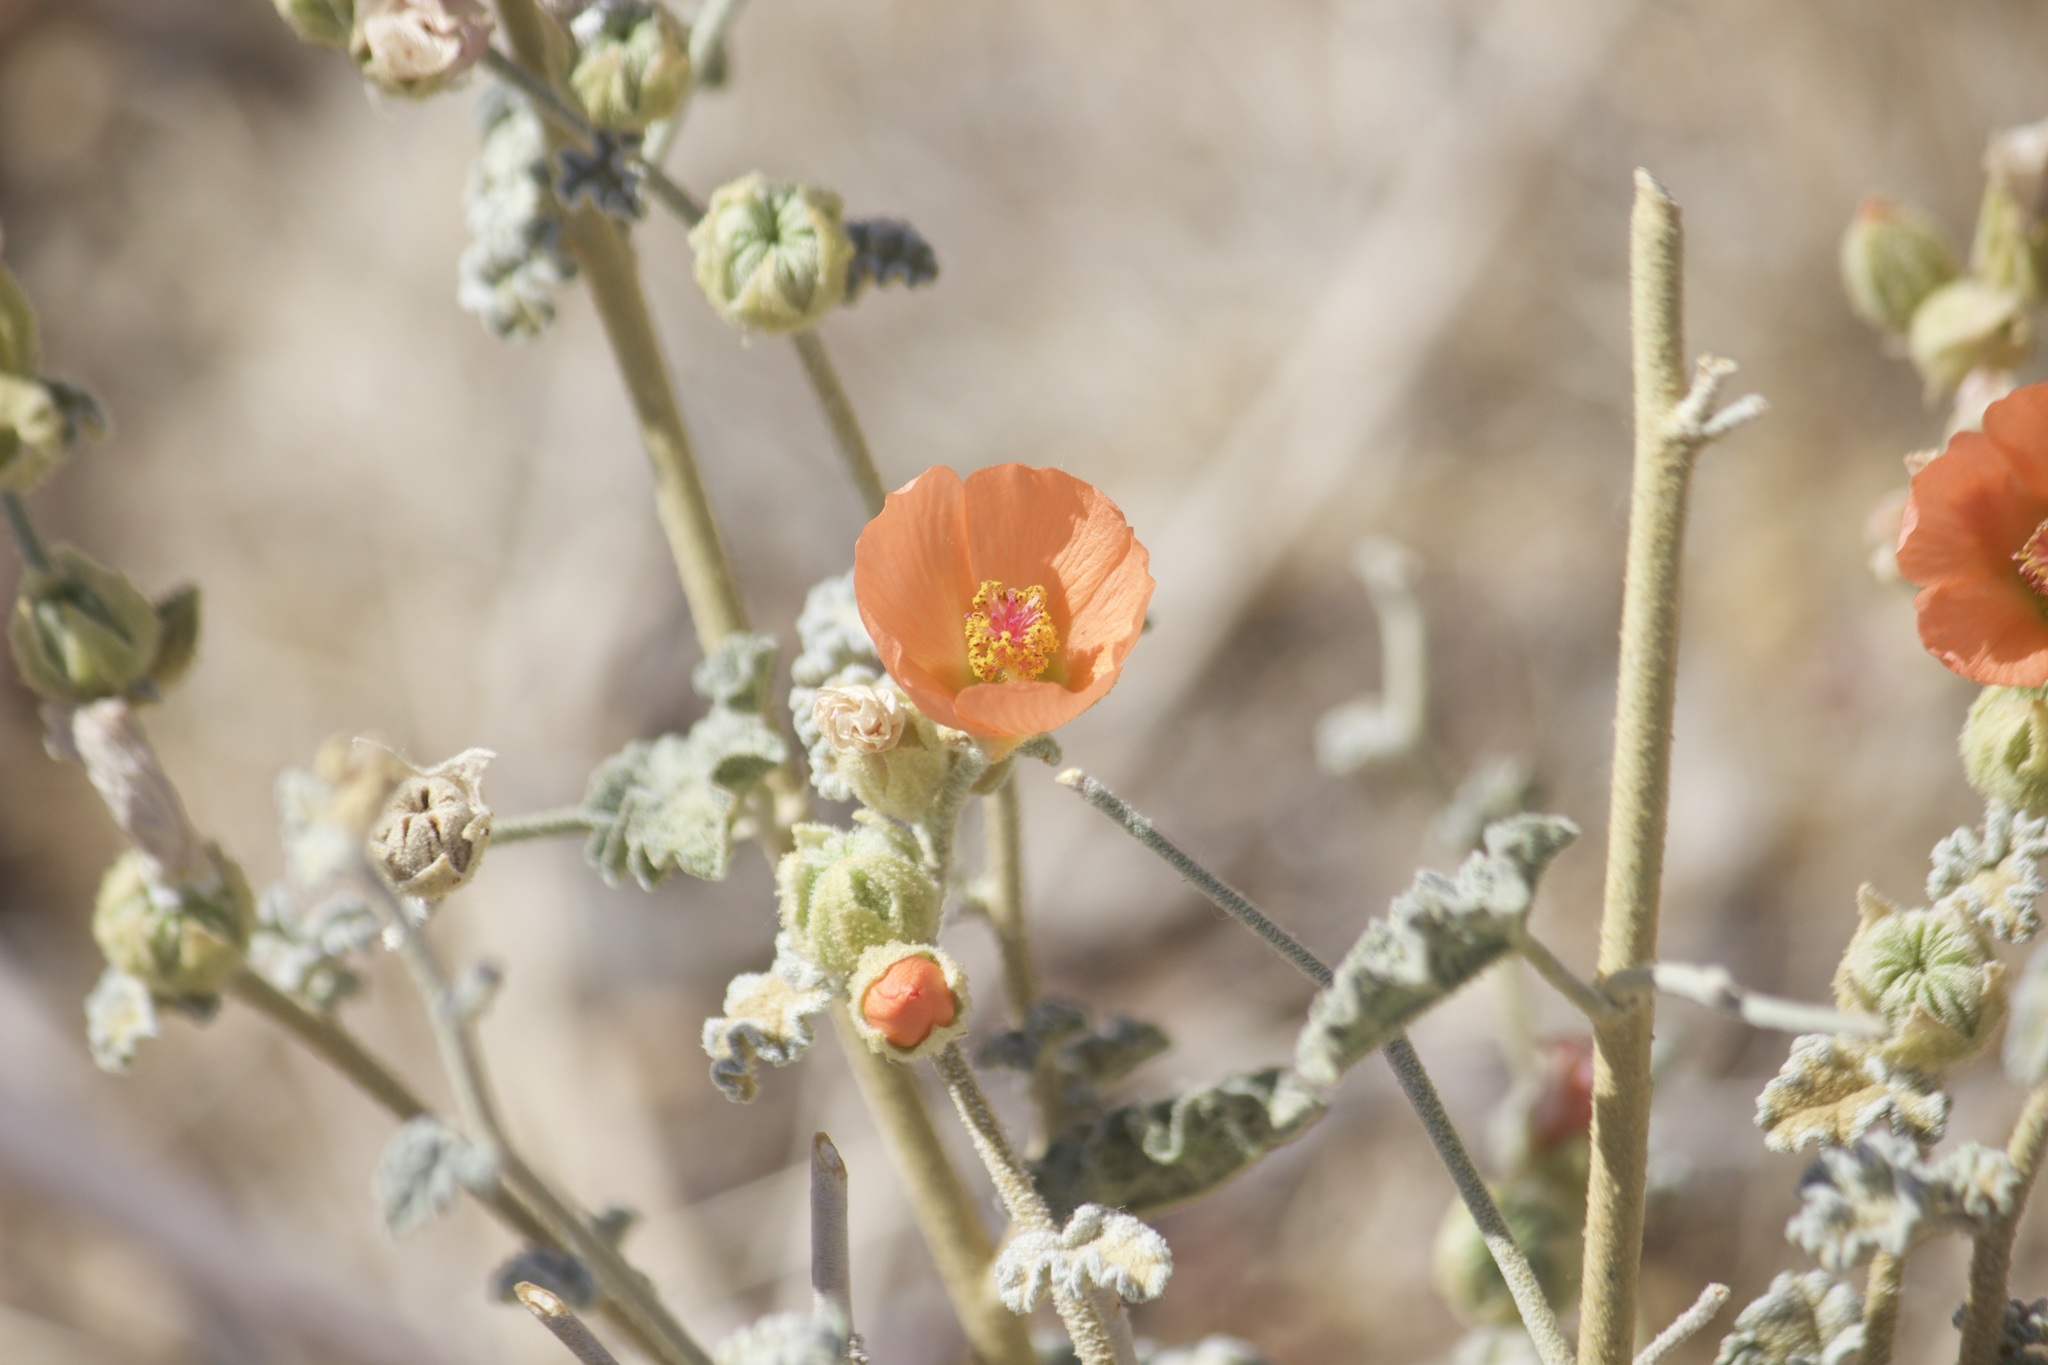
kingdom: Plantae
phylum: Tracheophyta
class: Magnoliopsida
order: Malvales
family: Malvaceae
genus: Sphaeralcea
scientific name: Sphaeralcea ambigua
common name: Apricot globe-mallow
